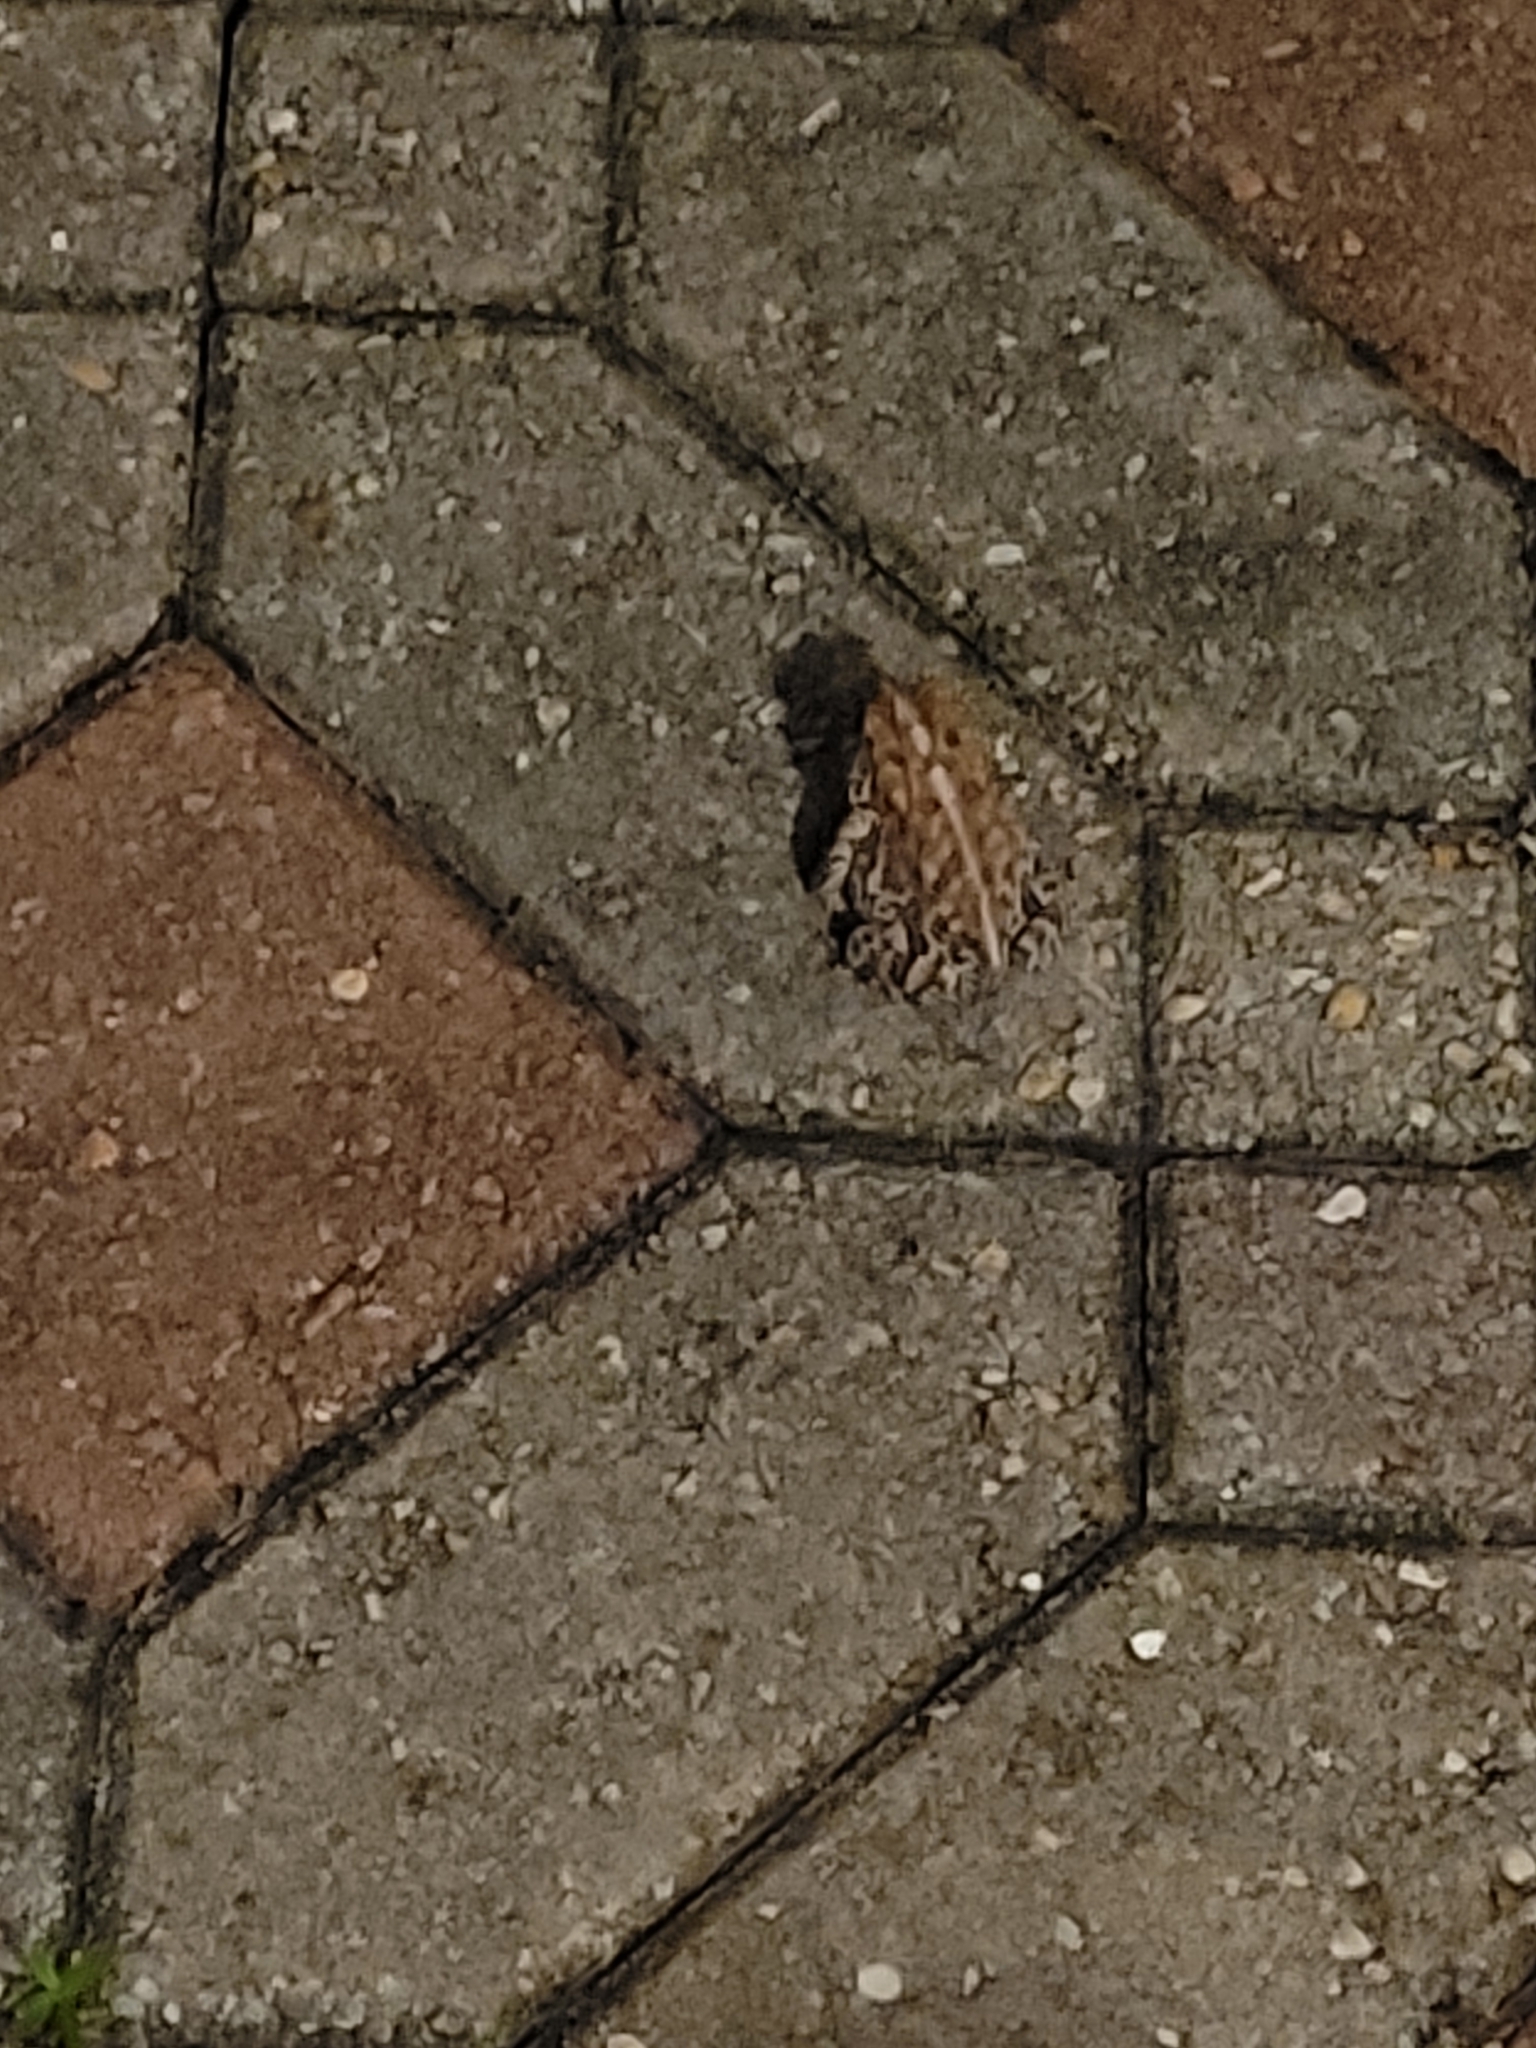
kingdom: Animalia
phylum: Chordata
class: Amphibia
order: Anura
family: Bufonidae
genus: Anaxyrus
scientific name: Anaxyrus terrestris
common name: Southern toad
